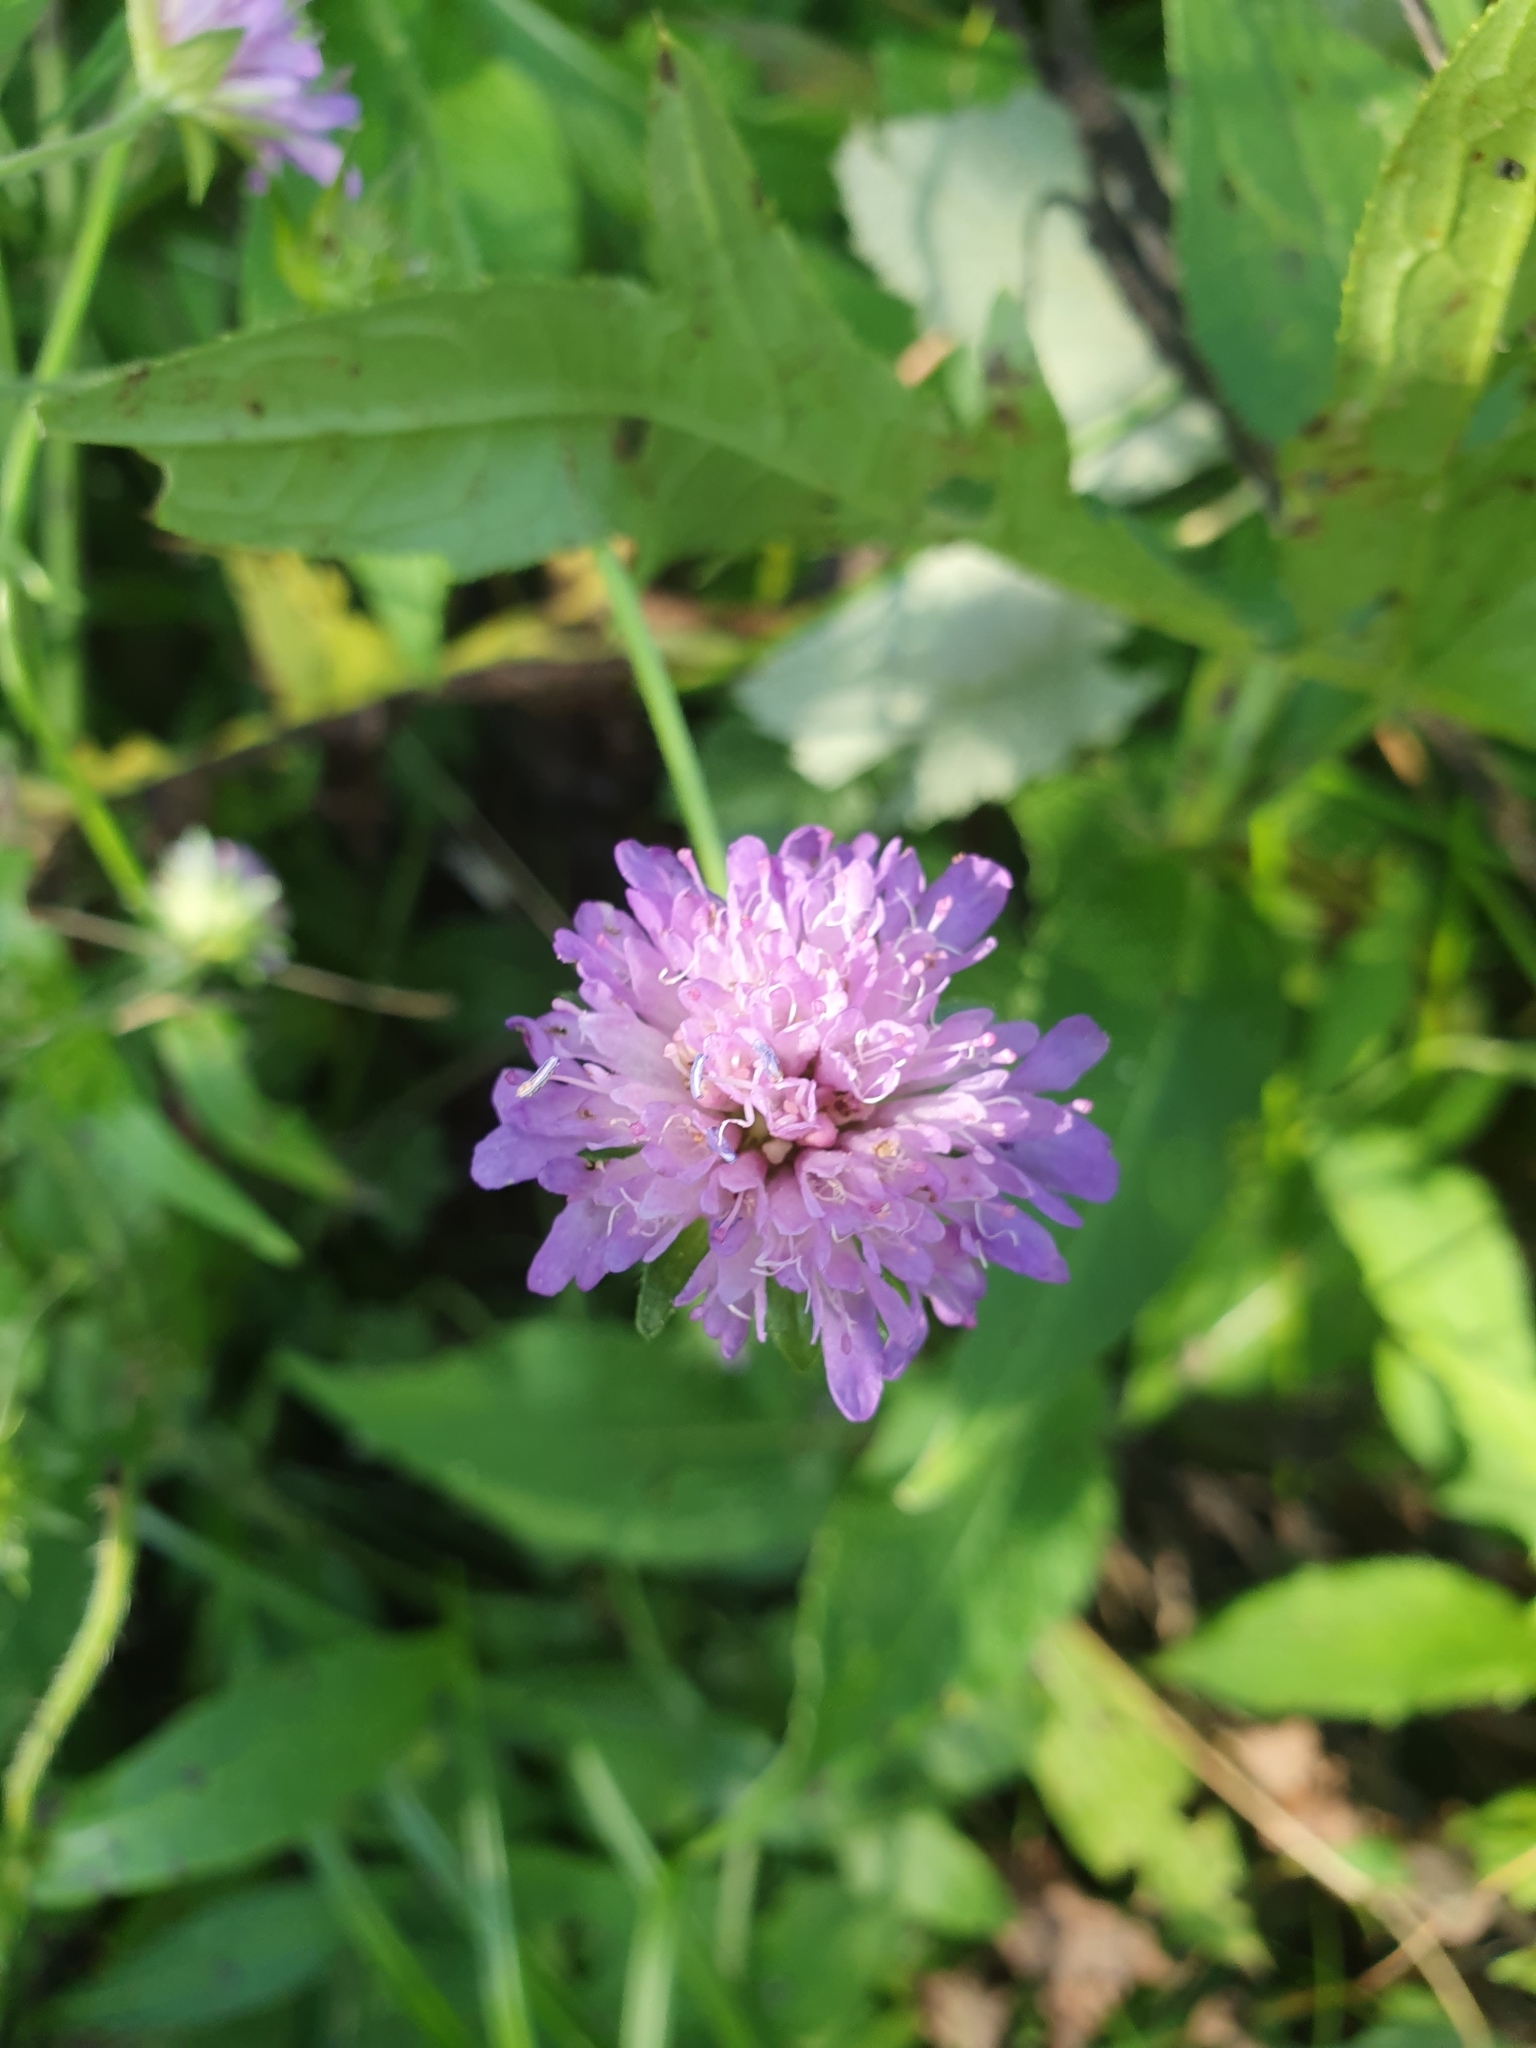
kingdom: Plantae
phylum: Tracheophyta
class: Magnoliopsida
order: Dipsacales
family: Caprifoliaceae
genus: Knautia
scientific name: Knautia dipsacifolia
